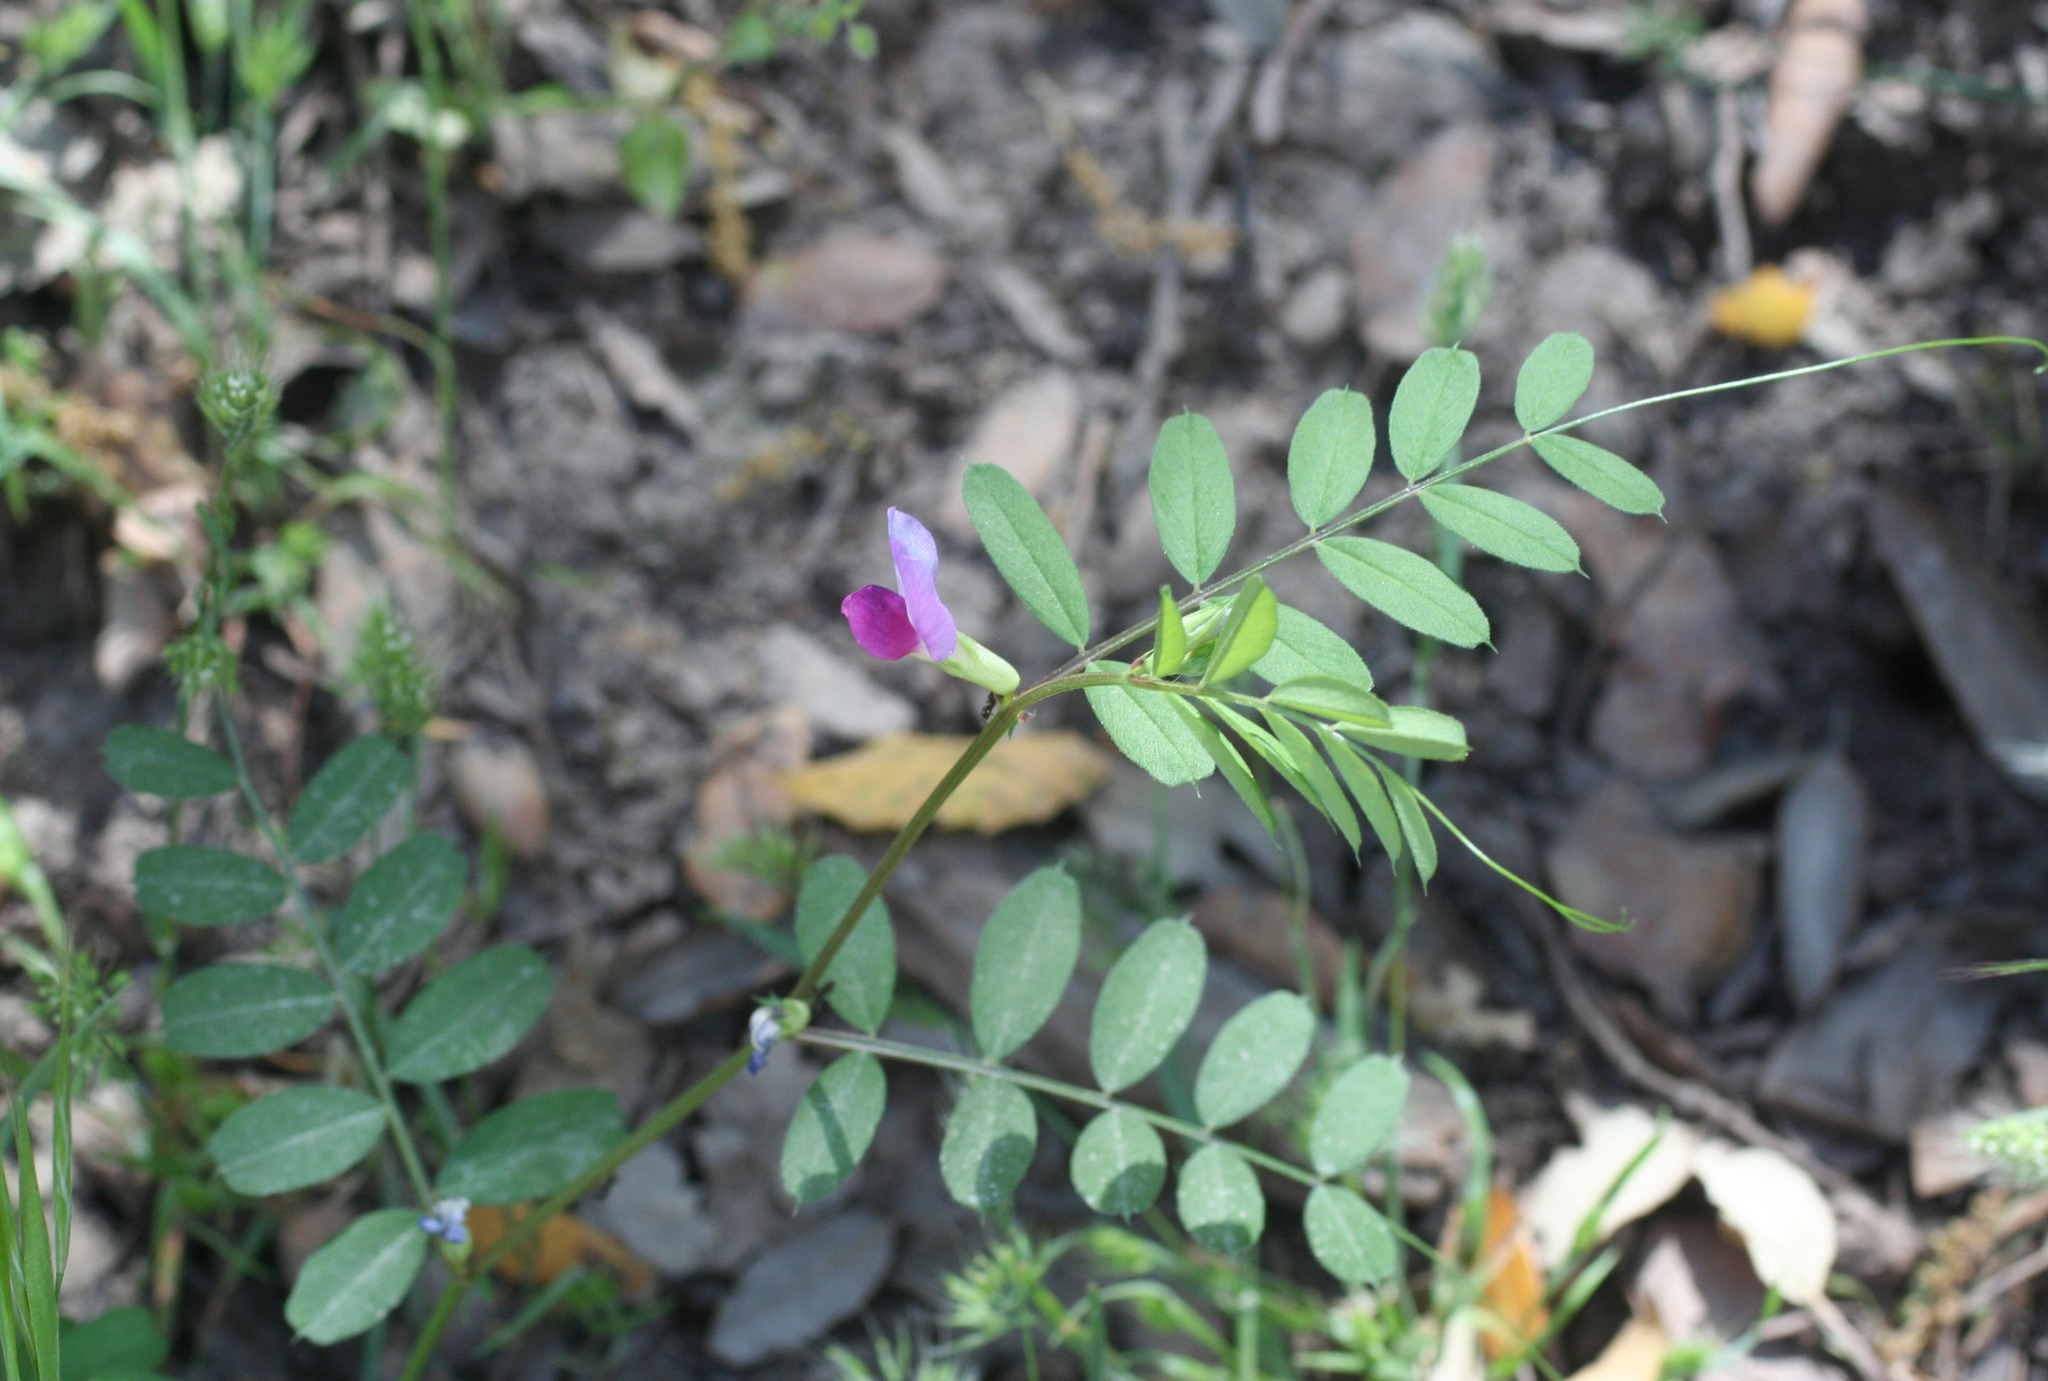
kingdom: Plantae
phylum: Tracheophyta
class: Magnoliopsida
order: Fabales
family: Fabaceae
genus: Vicia
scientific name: Vicia sativa
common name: Garden vetch
